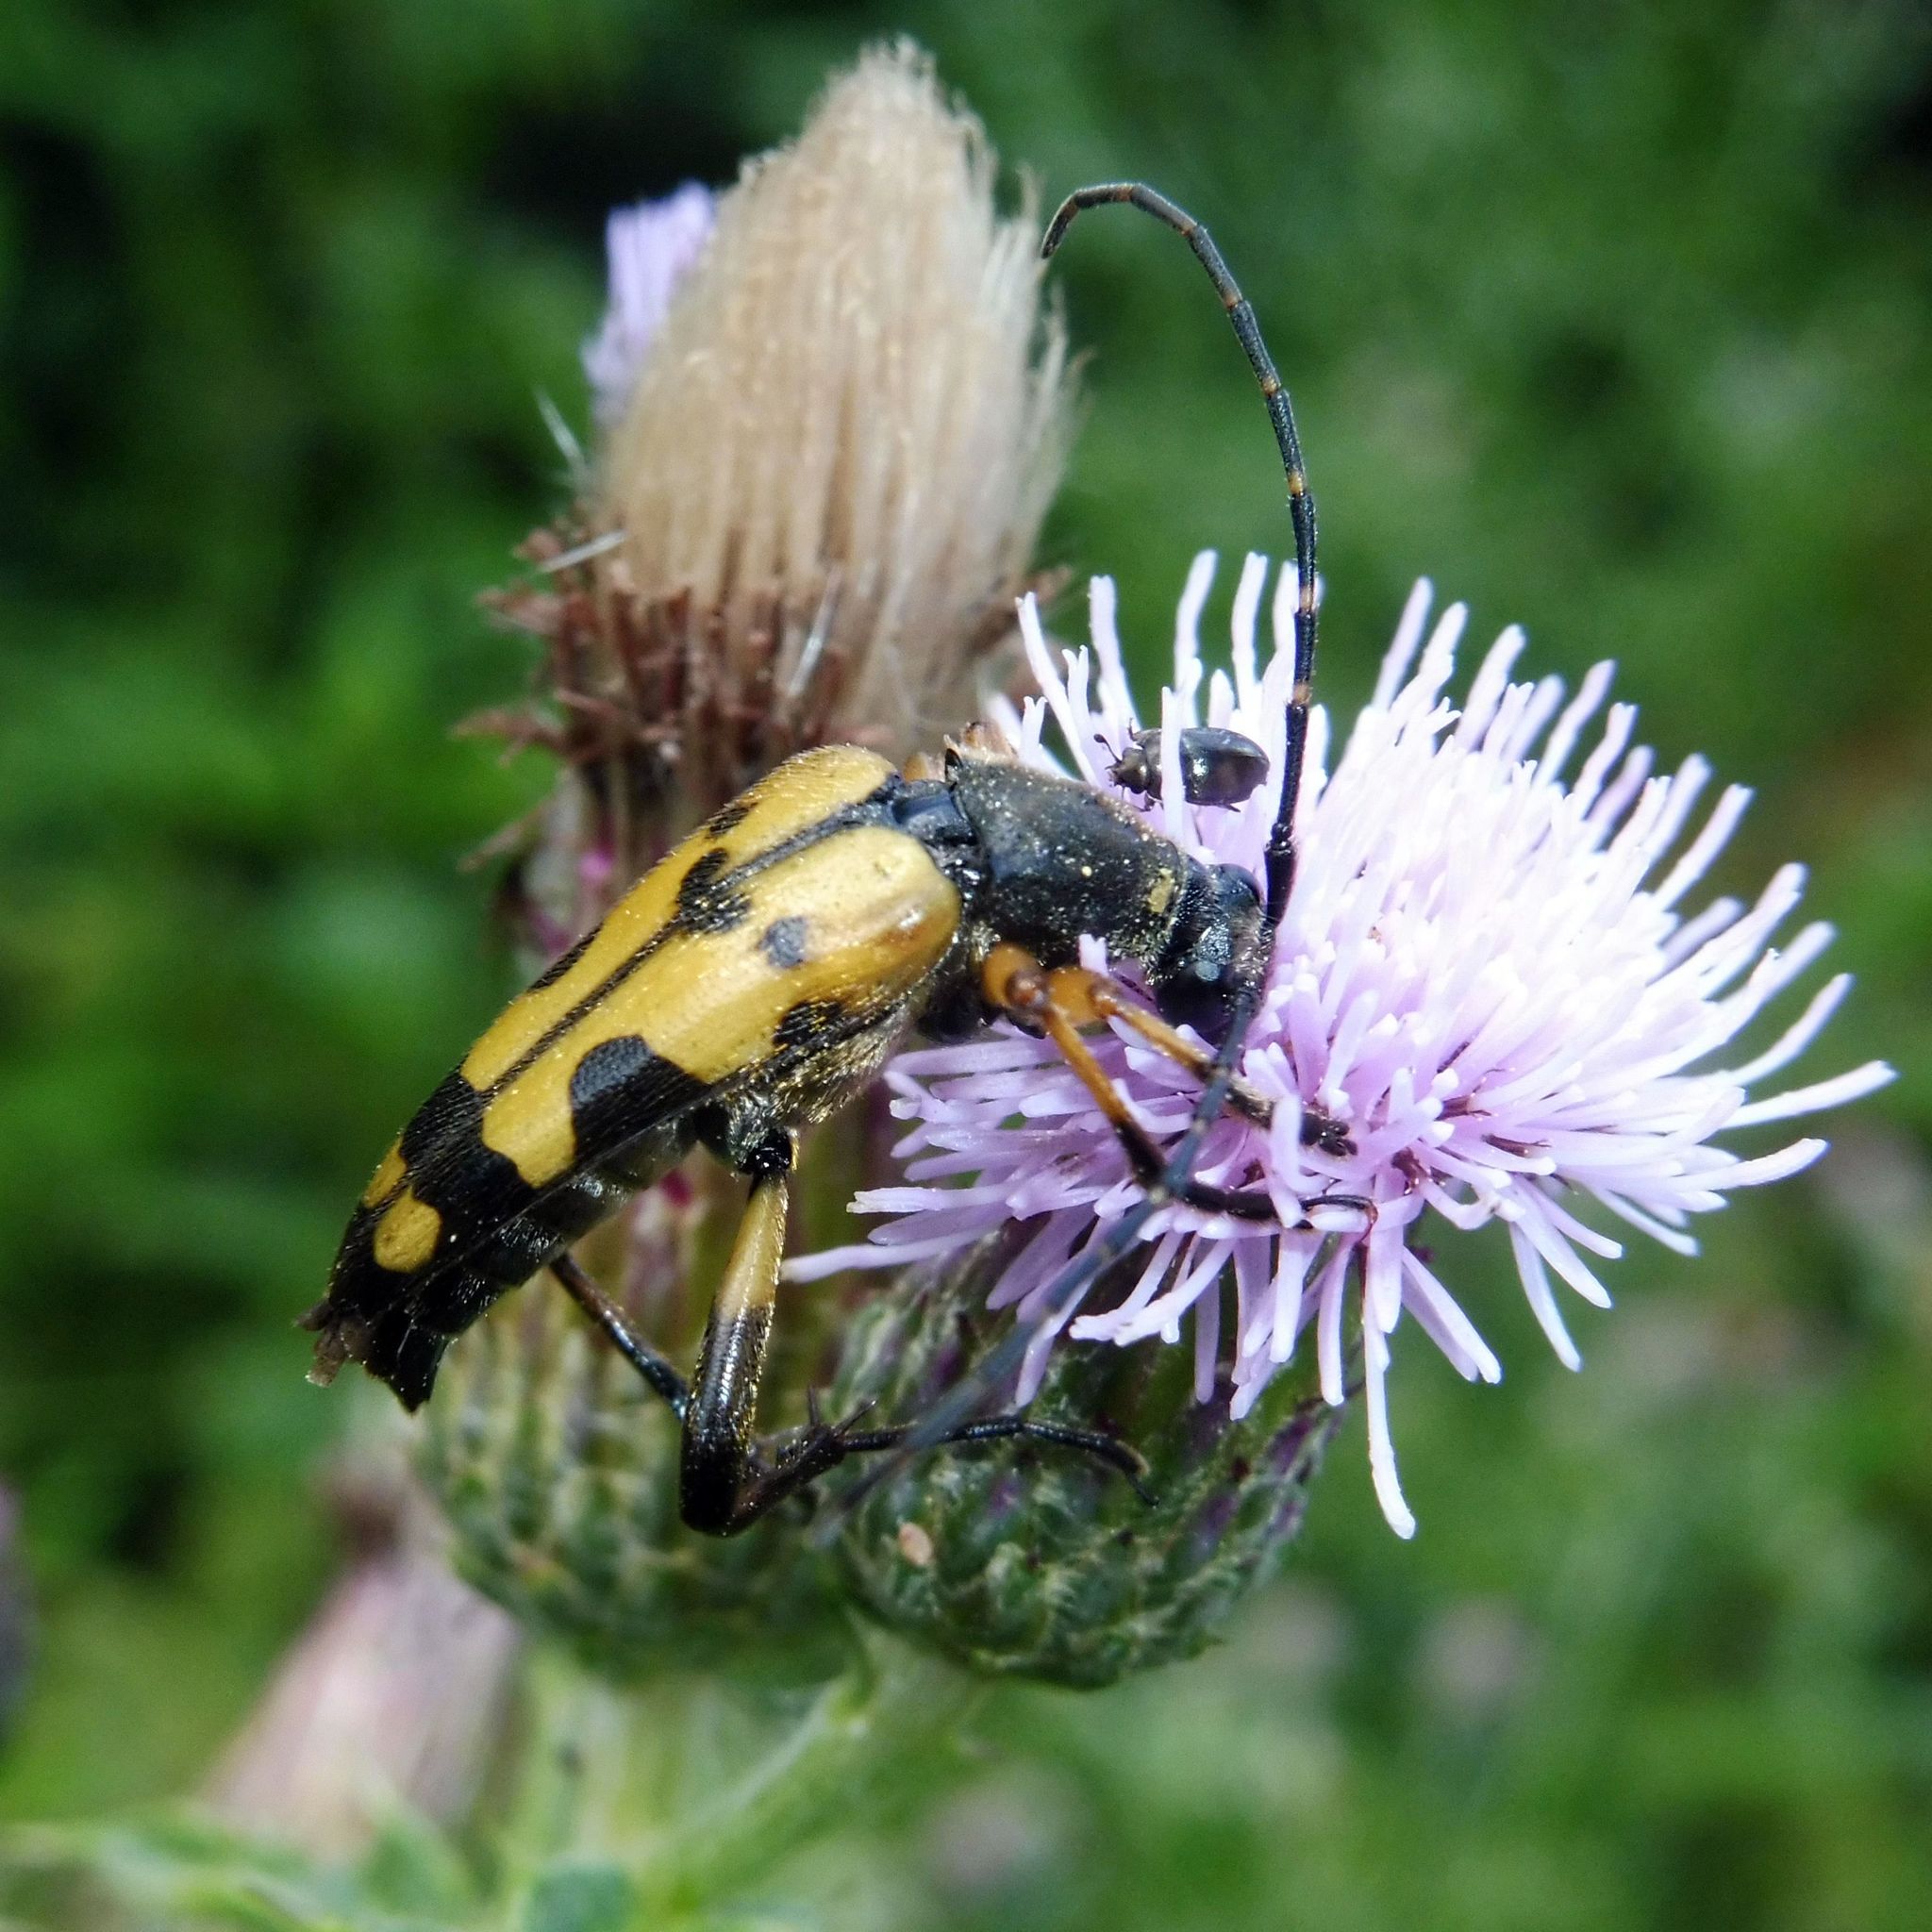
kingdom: Animalia
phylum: Arthropoda
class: Insecta
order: Coleoptera
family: Cerambycidae
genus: Rutpela
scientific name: Rutpela maculata
